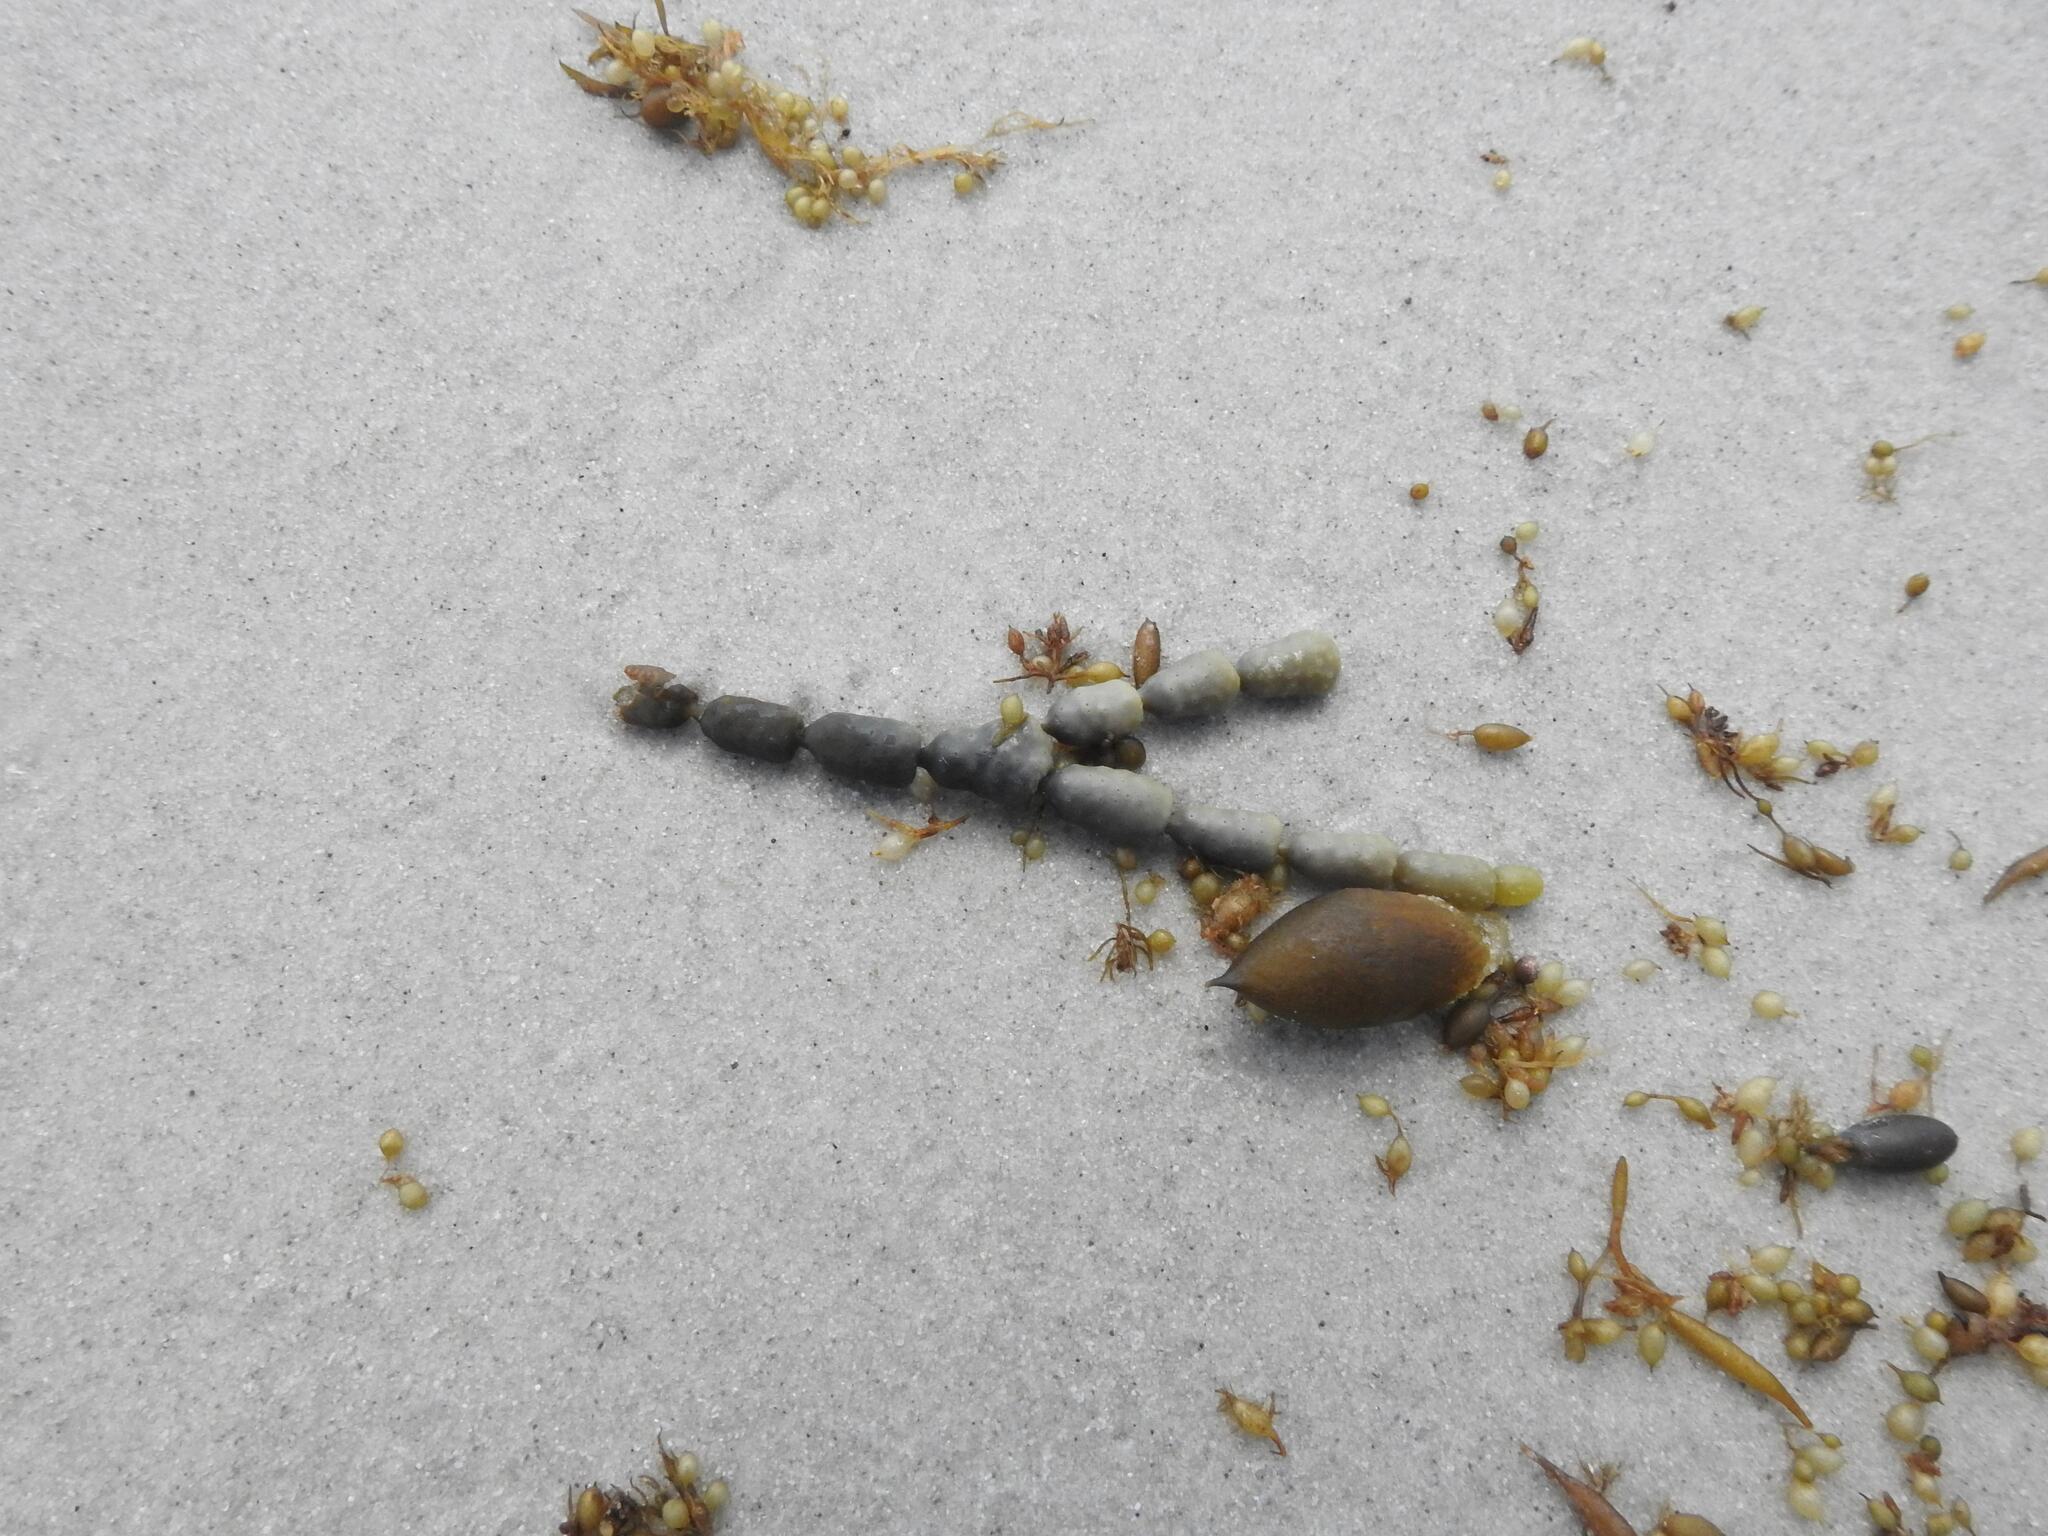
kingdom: Chromista
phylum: Ochrophyta
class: Phaeophyceae
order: Fucales
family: Hormosiraceae
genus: Hormosira
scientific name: Hormosira banksii
